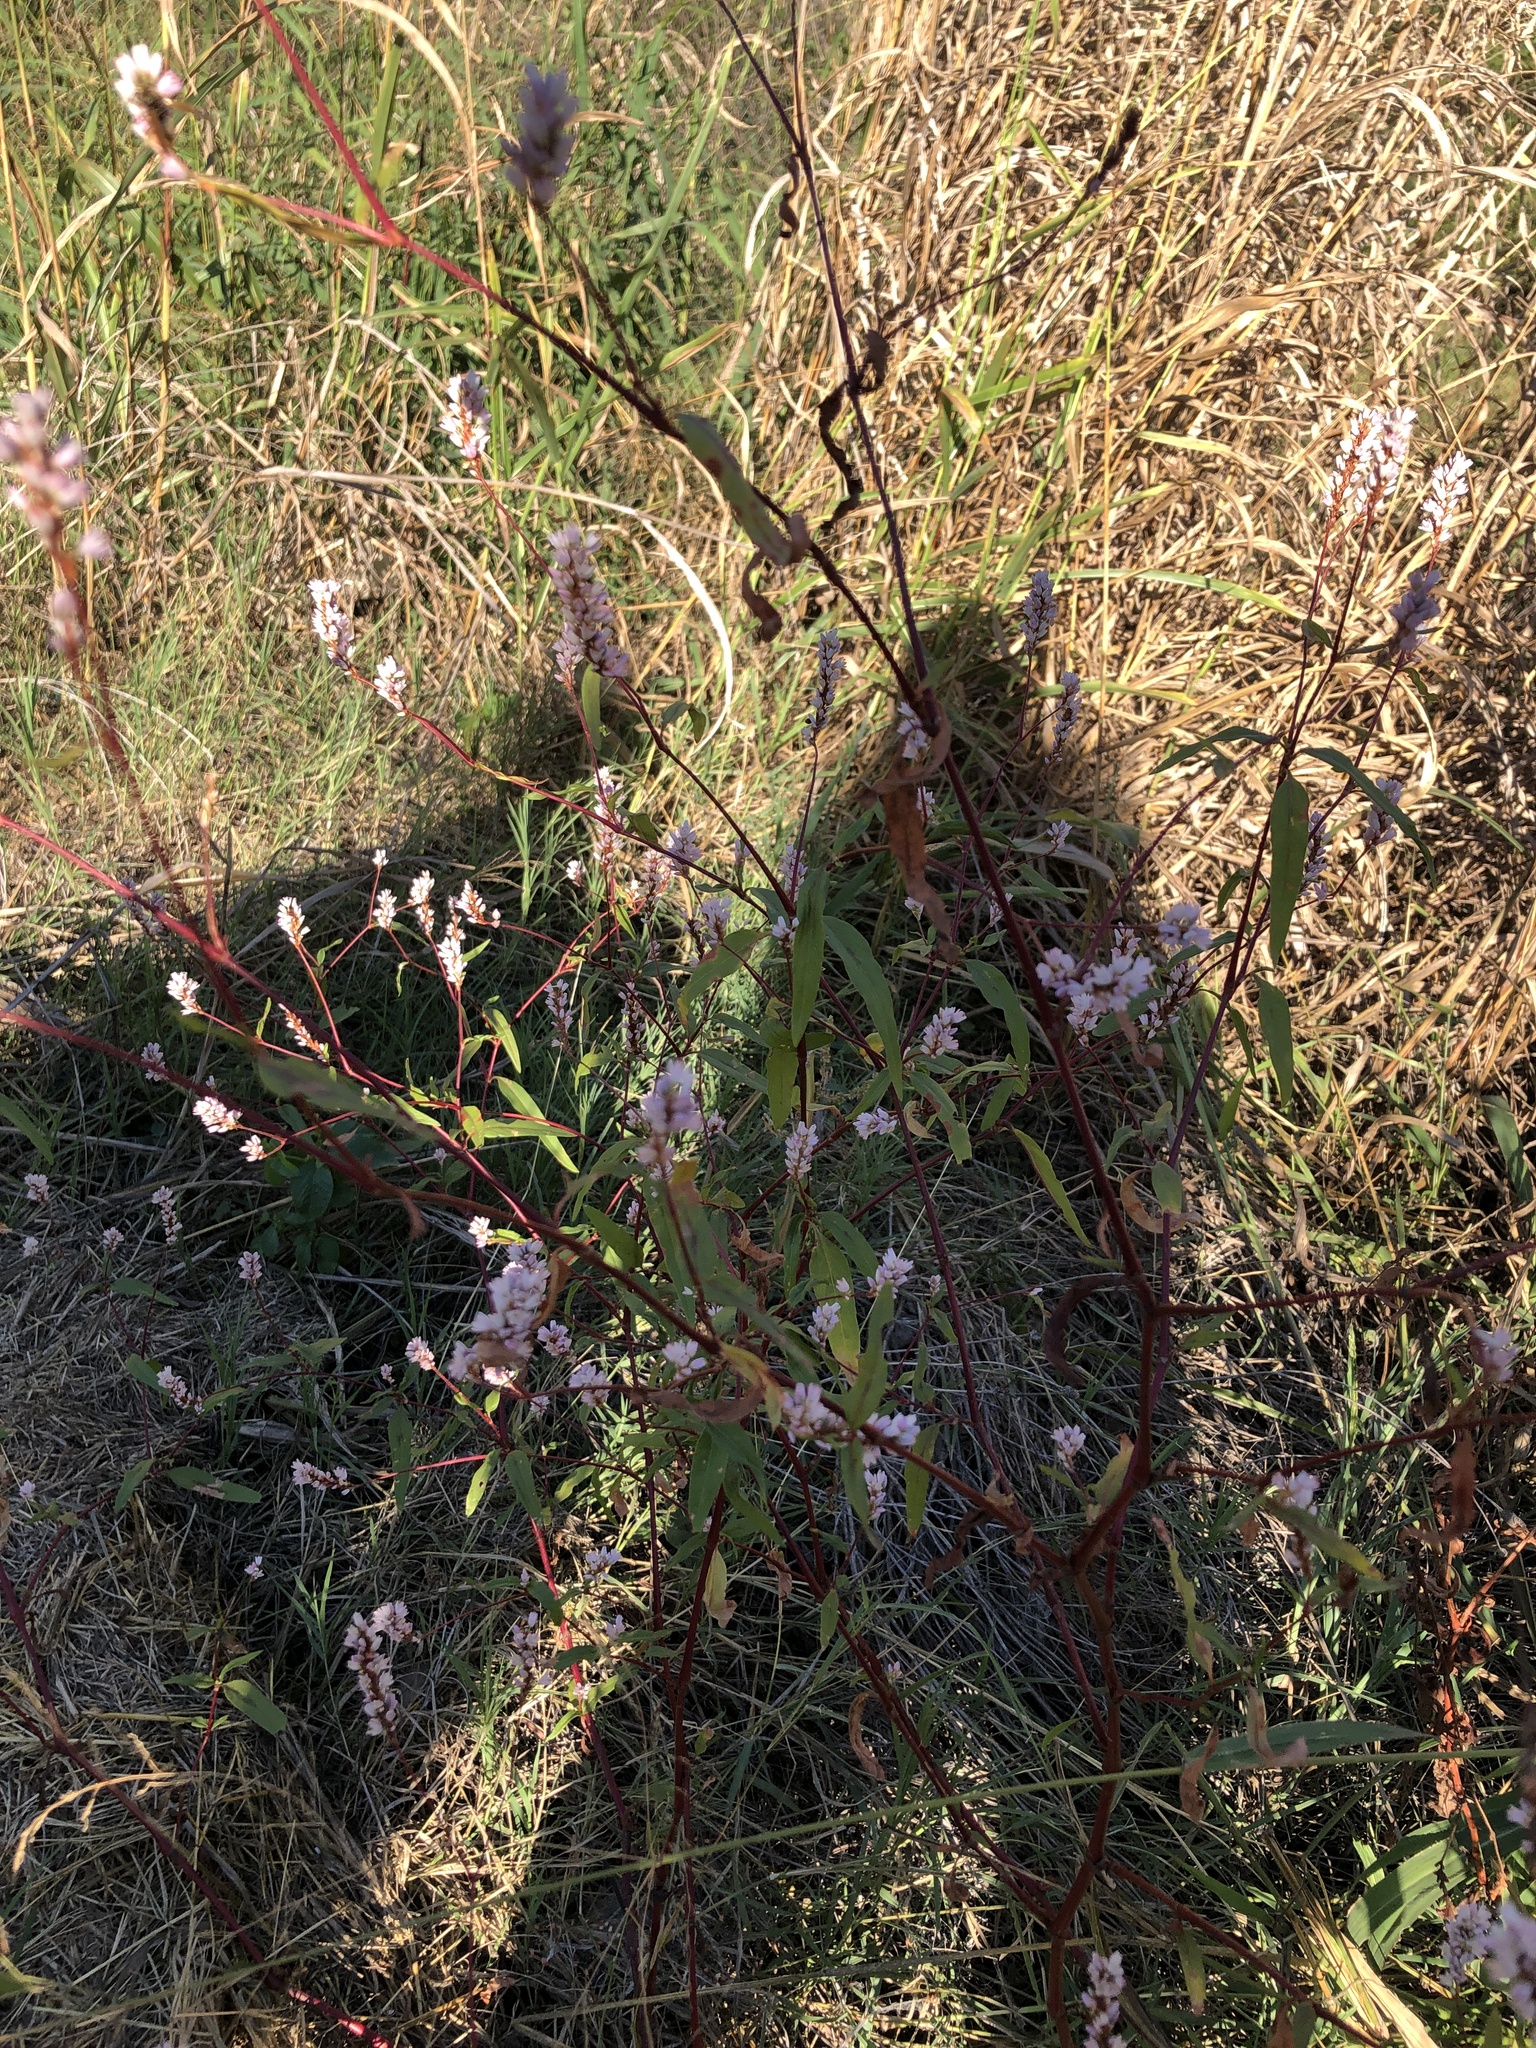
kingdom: Plantae
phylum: Tracheophyta
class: Magnoliopsida
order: Caryophyllales
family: Polygonaceae
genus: Persicaria
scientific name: Persicaria pensylvanica
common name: Pinkweed
